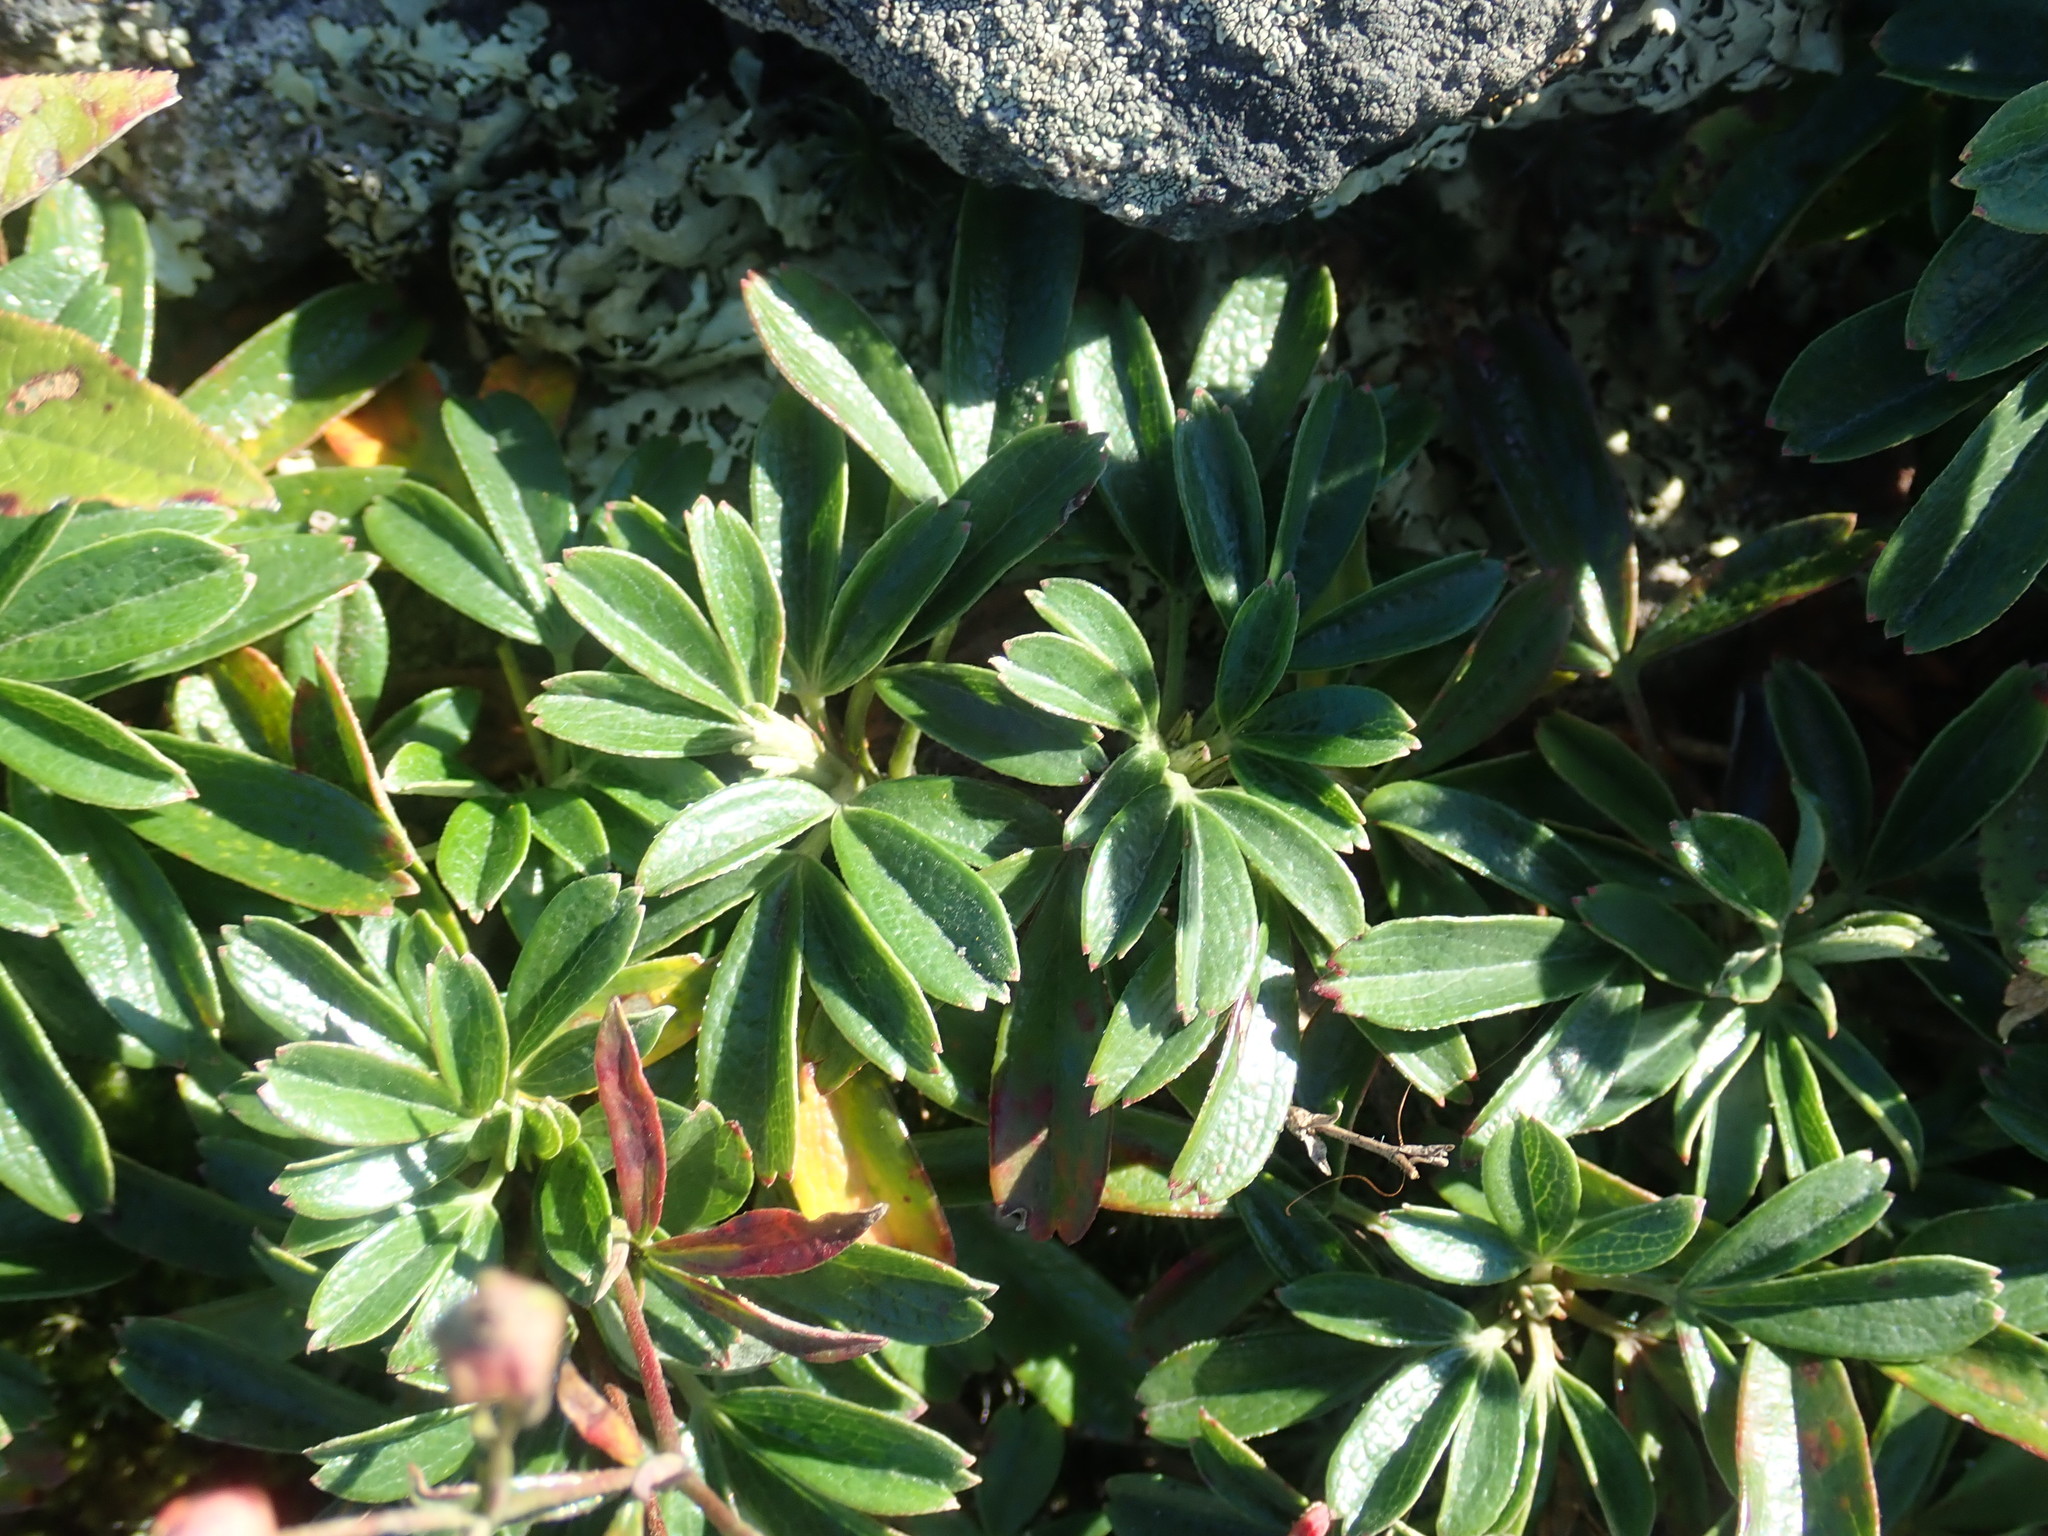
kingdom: Plantae
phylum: Tracheophyta
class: Magnoliopsida
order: Rosales
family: Rosaceae
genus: Sibbaldia
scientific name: Sibbaldia tridentata
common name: Three-toothed cinquefoil
